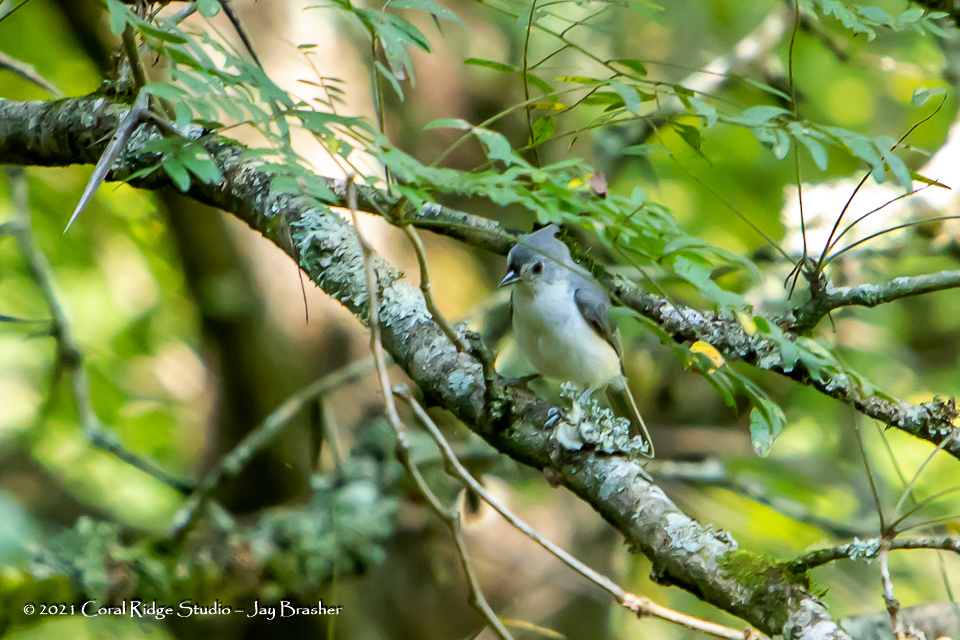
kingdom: Animalia
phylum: Chordata
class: Aves
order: Passeriformes
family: Paridae
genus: Baeolophus
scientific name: Baeolophus bicolor
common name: Tufted titmouse
